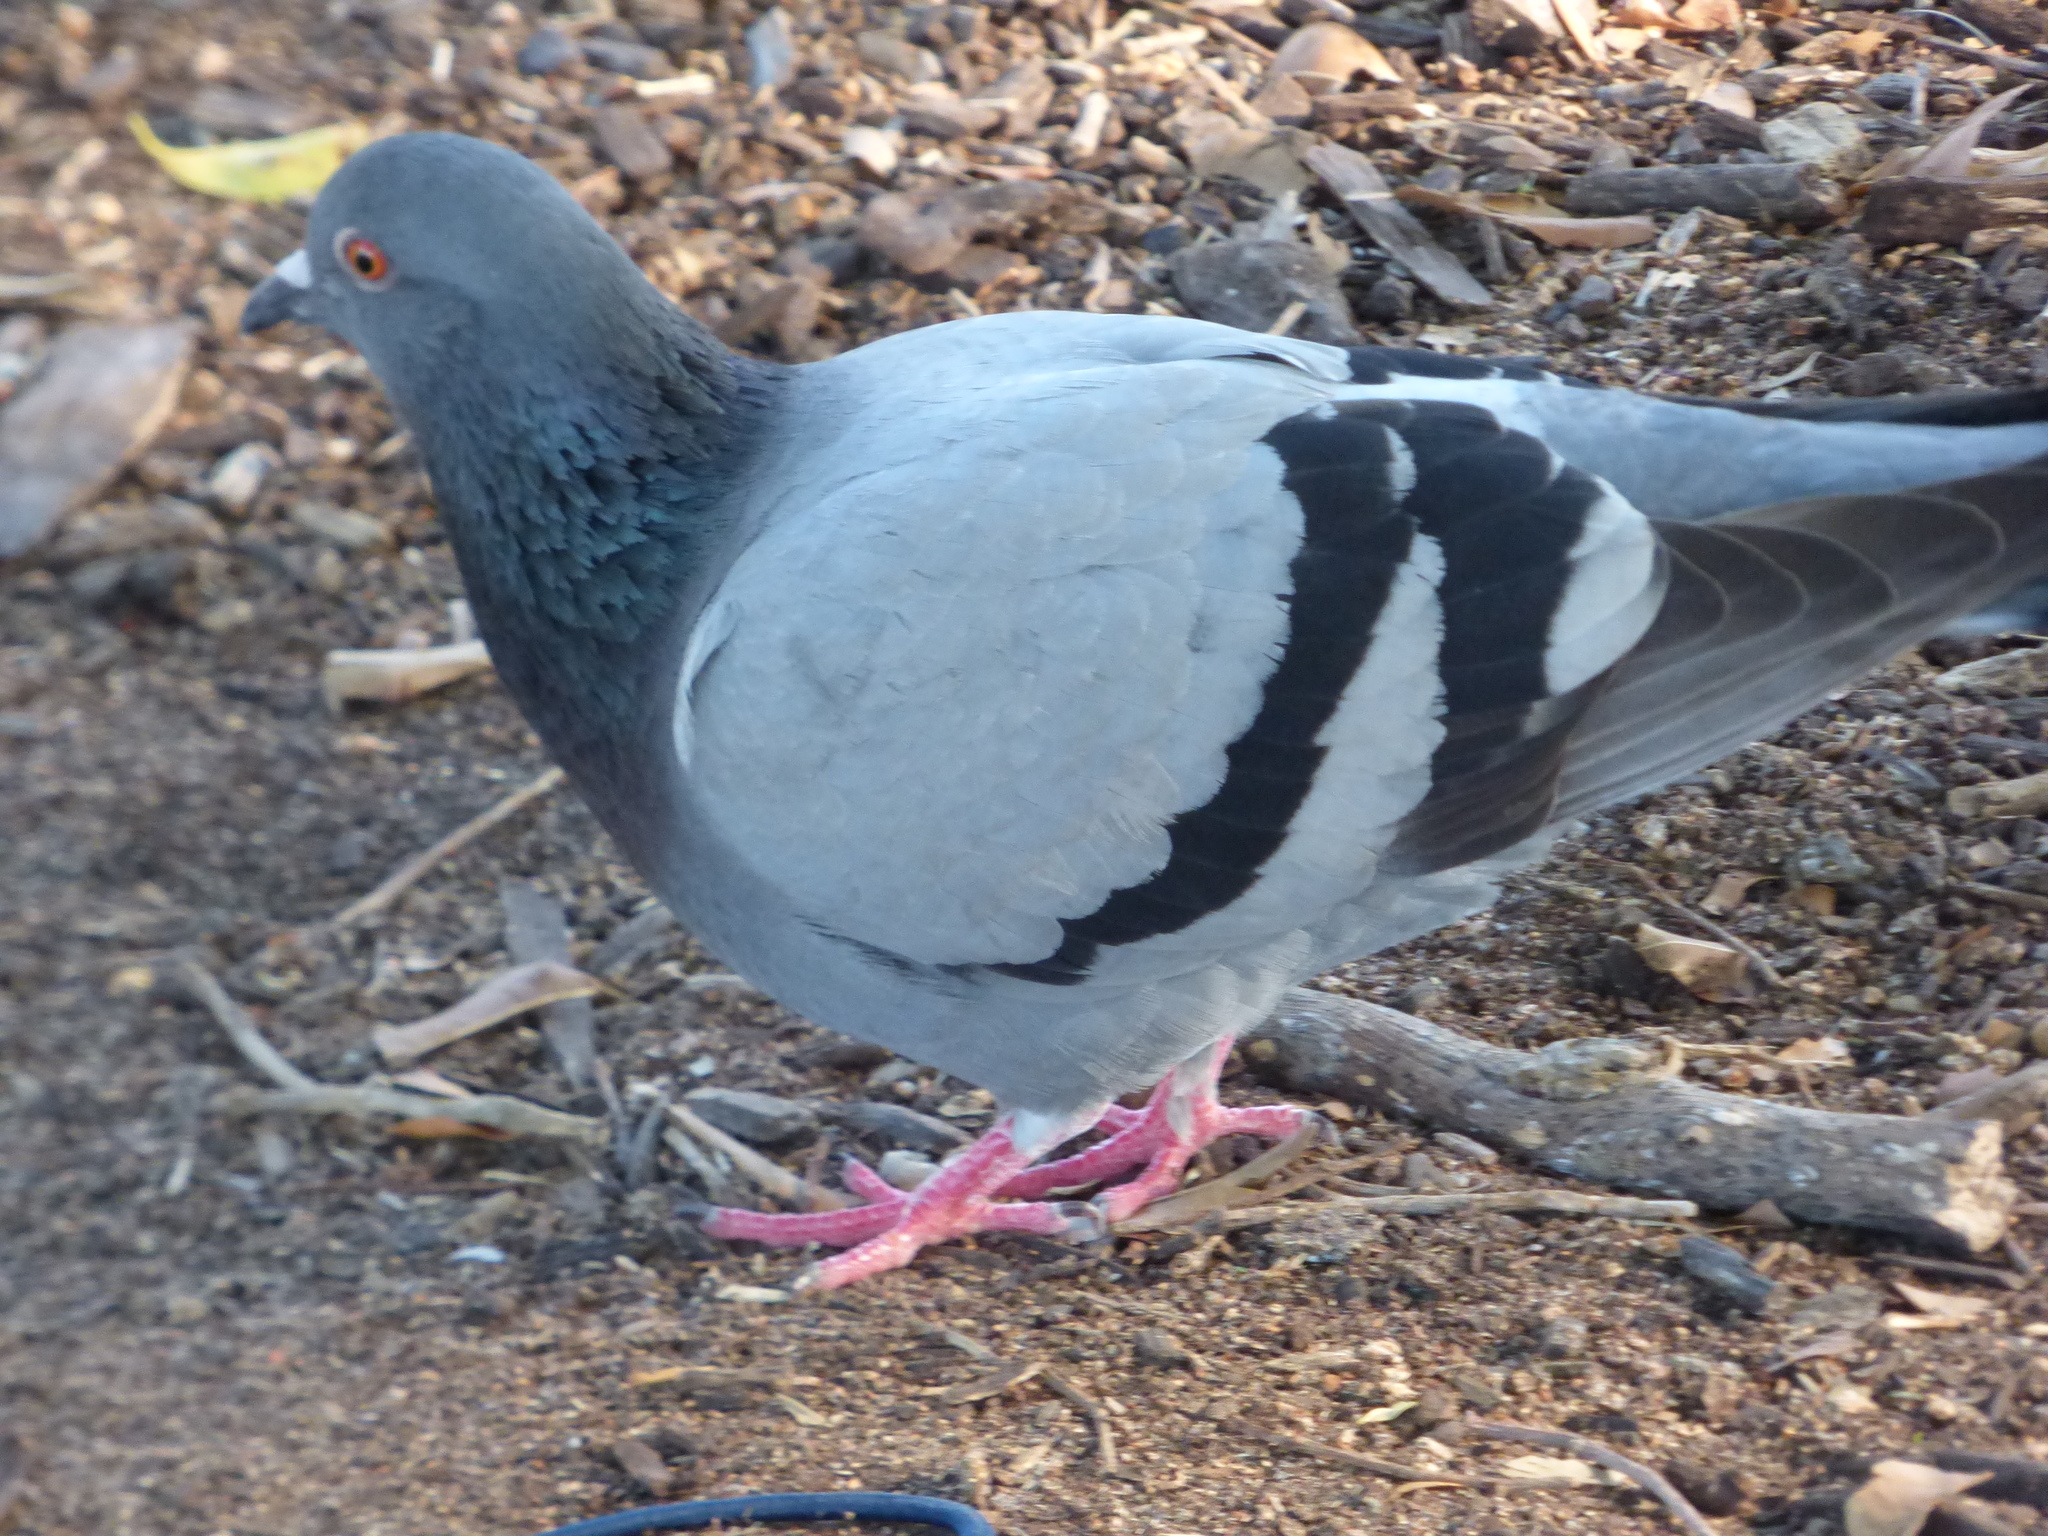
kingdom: Animalia
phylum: Chordata
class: Aves
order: Columbiformes
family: Columbidae
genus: Columba
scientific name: Columba livia
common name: Rock pigeon
